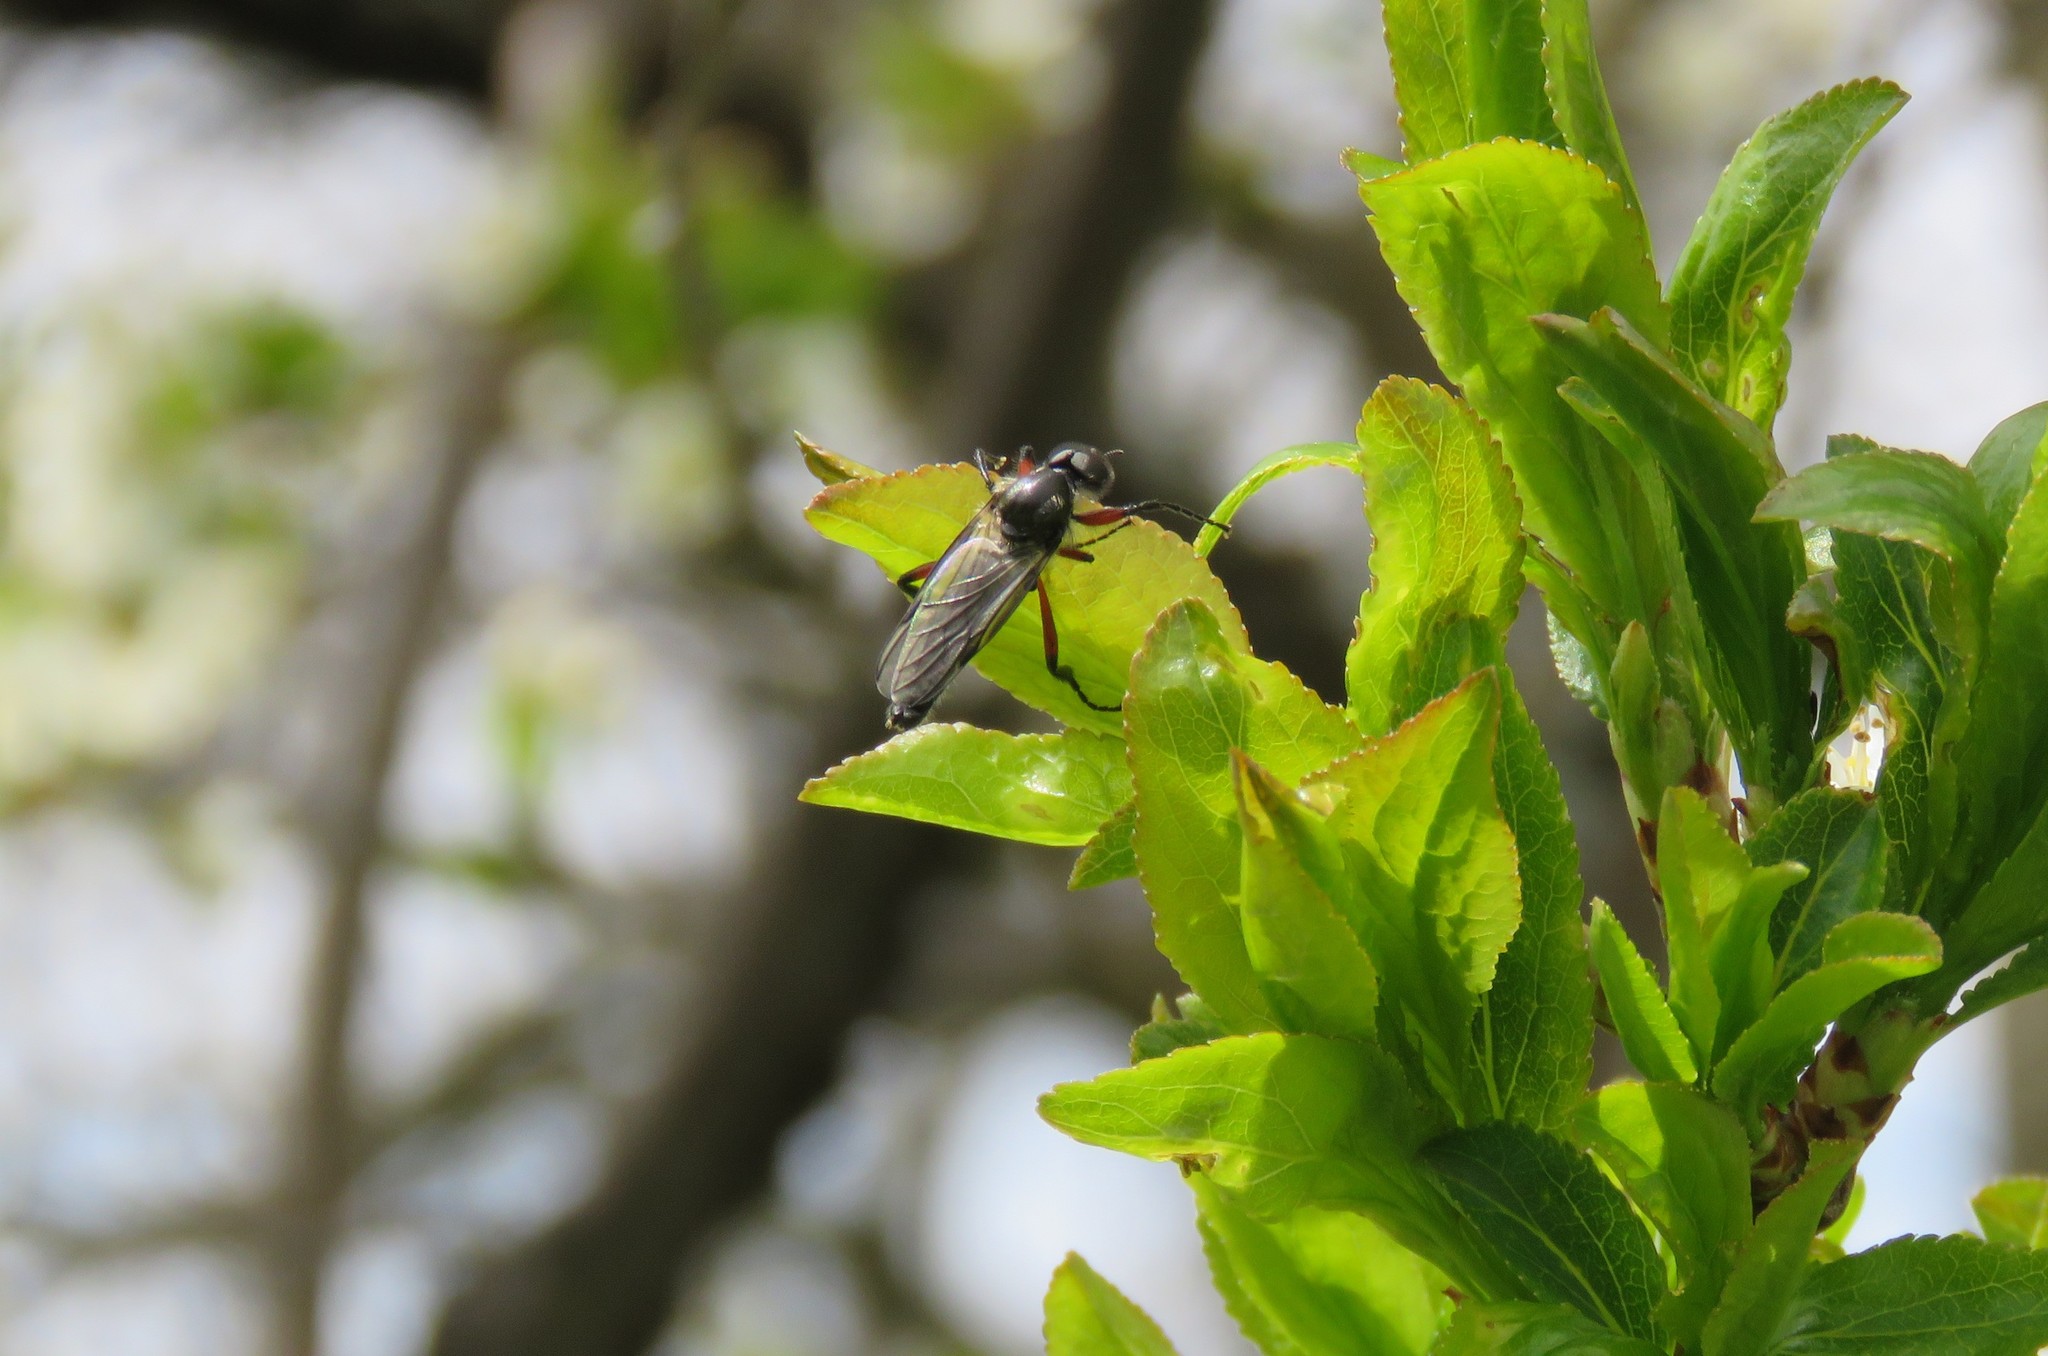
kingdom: Animalia
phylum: Arthropoda
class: Insecta
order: Diptera
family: Bibionidae
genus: Bibio
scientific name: Bibio femoratus
